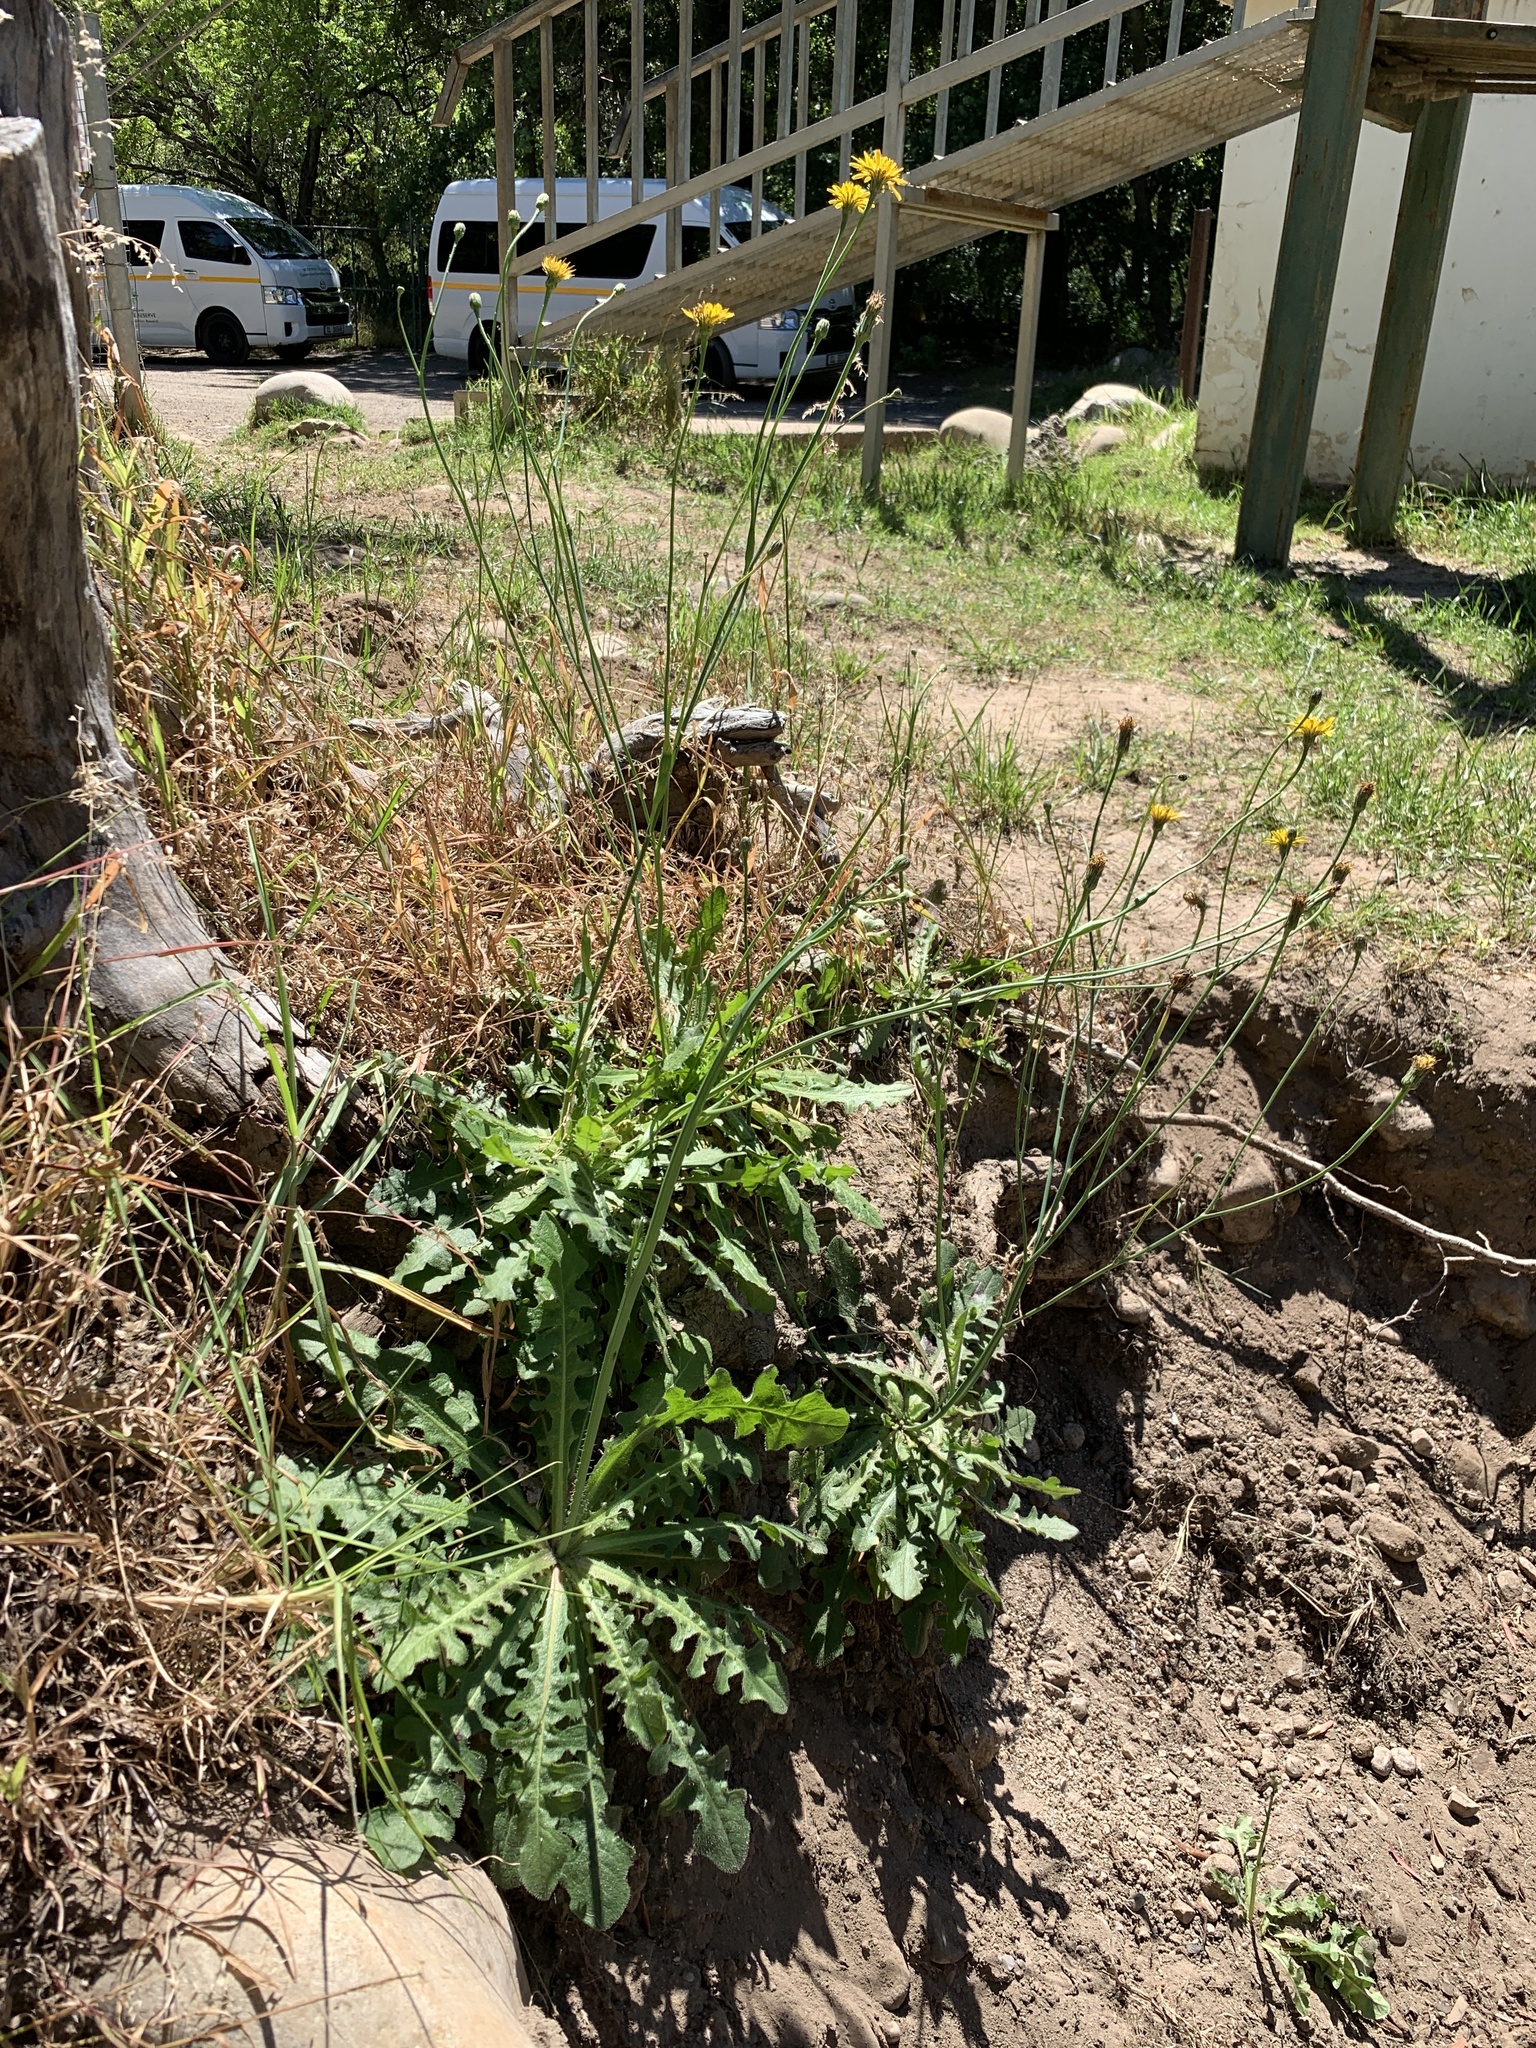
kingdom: Plantae
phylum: Tracheophyta
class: Magnoliopsida
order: Asterales
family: Asteraceae
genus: Hypochaeris
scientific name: Hypochaeris radicata
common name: Flatweed
